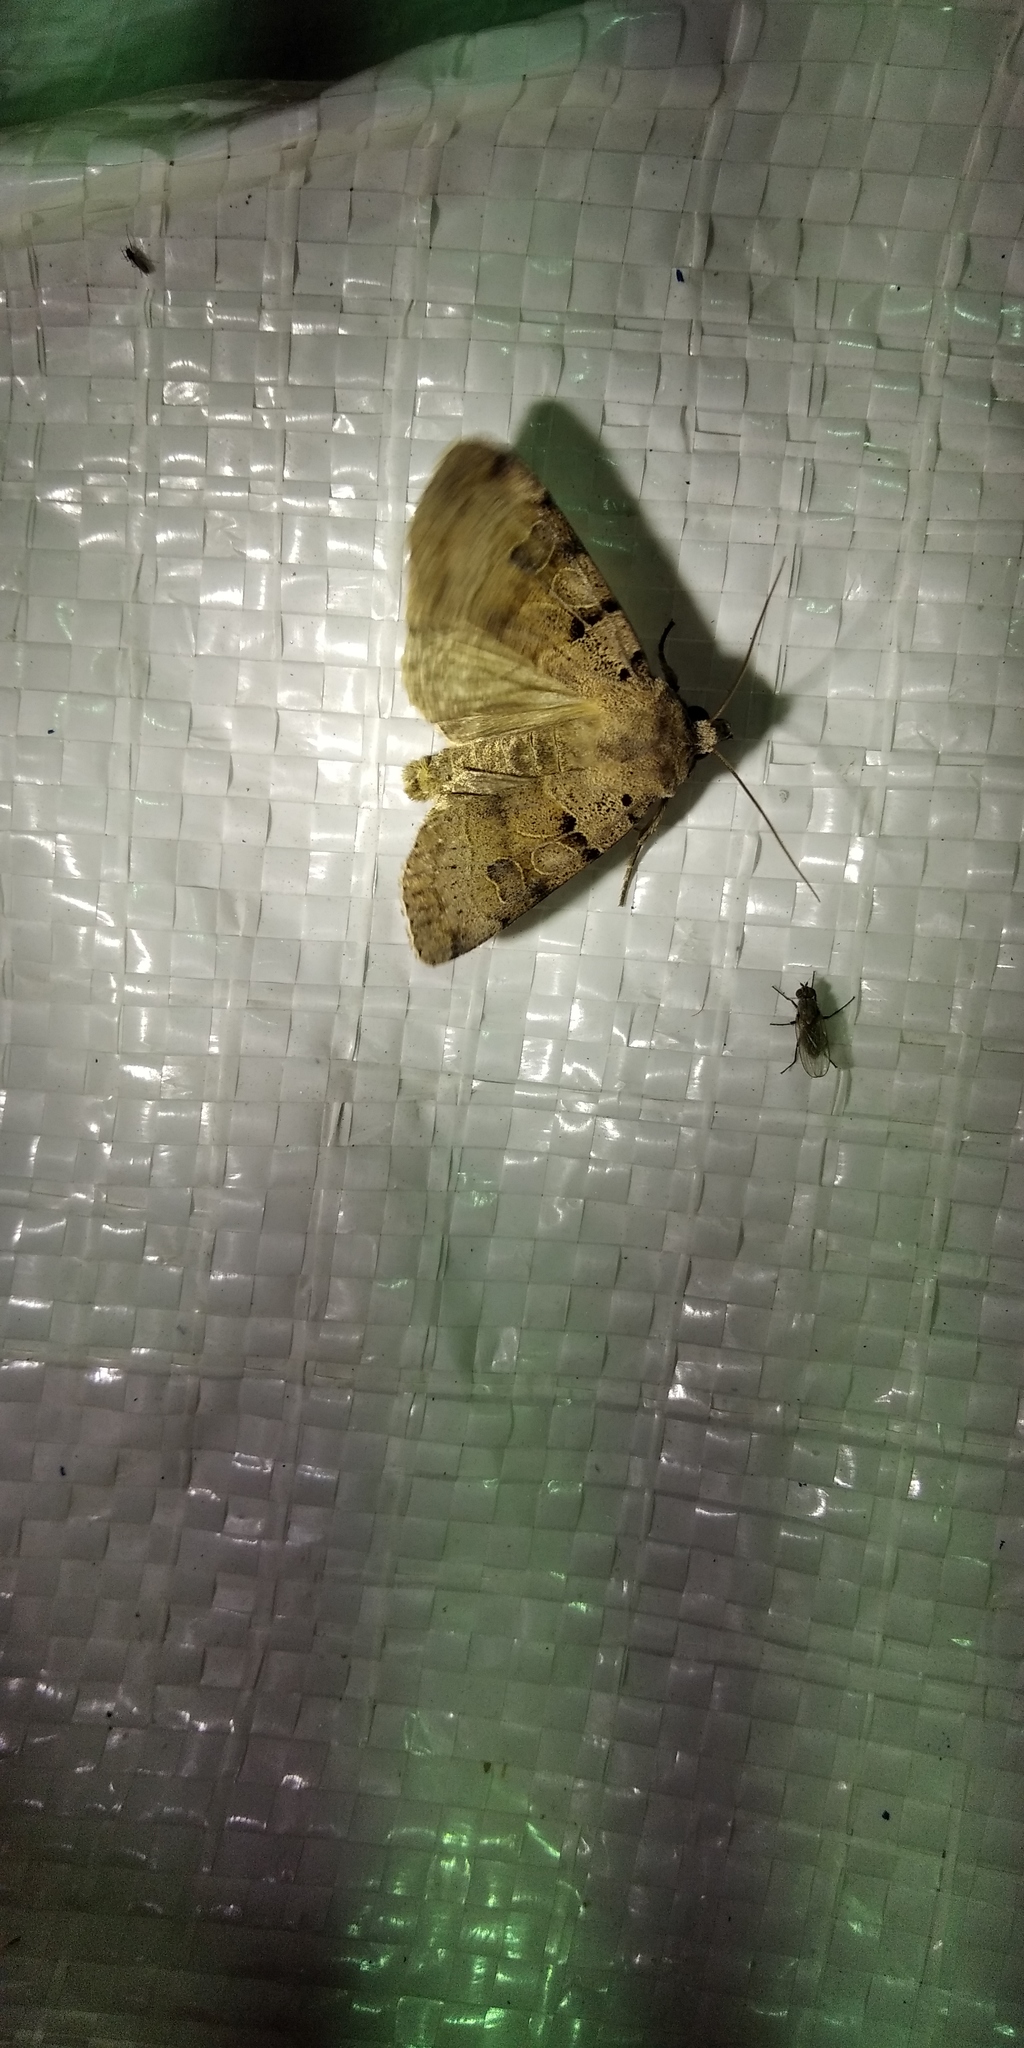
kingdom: Animalia
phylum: Arthropoda
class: Insecta
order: Lepidoptera
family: Noctuidae
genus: Eugnorisma
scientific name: Eugnorisma depuncta
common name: Plain clay
